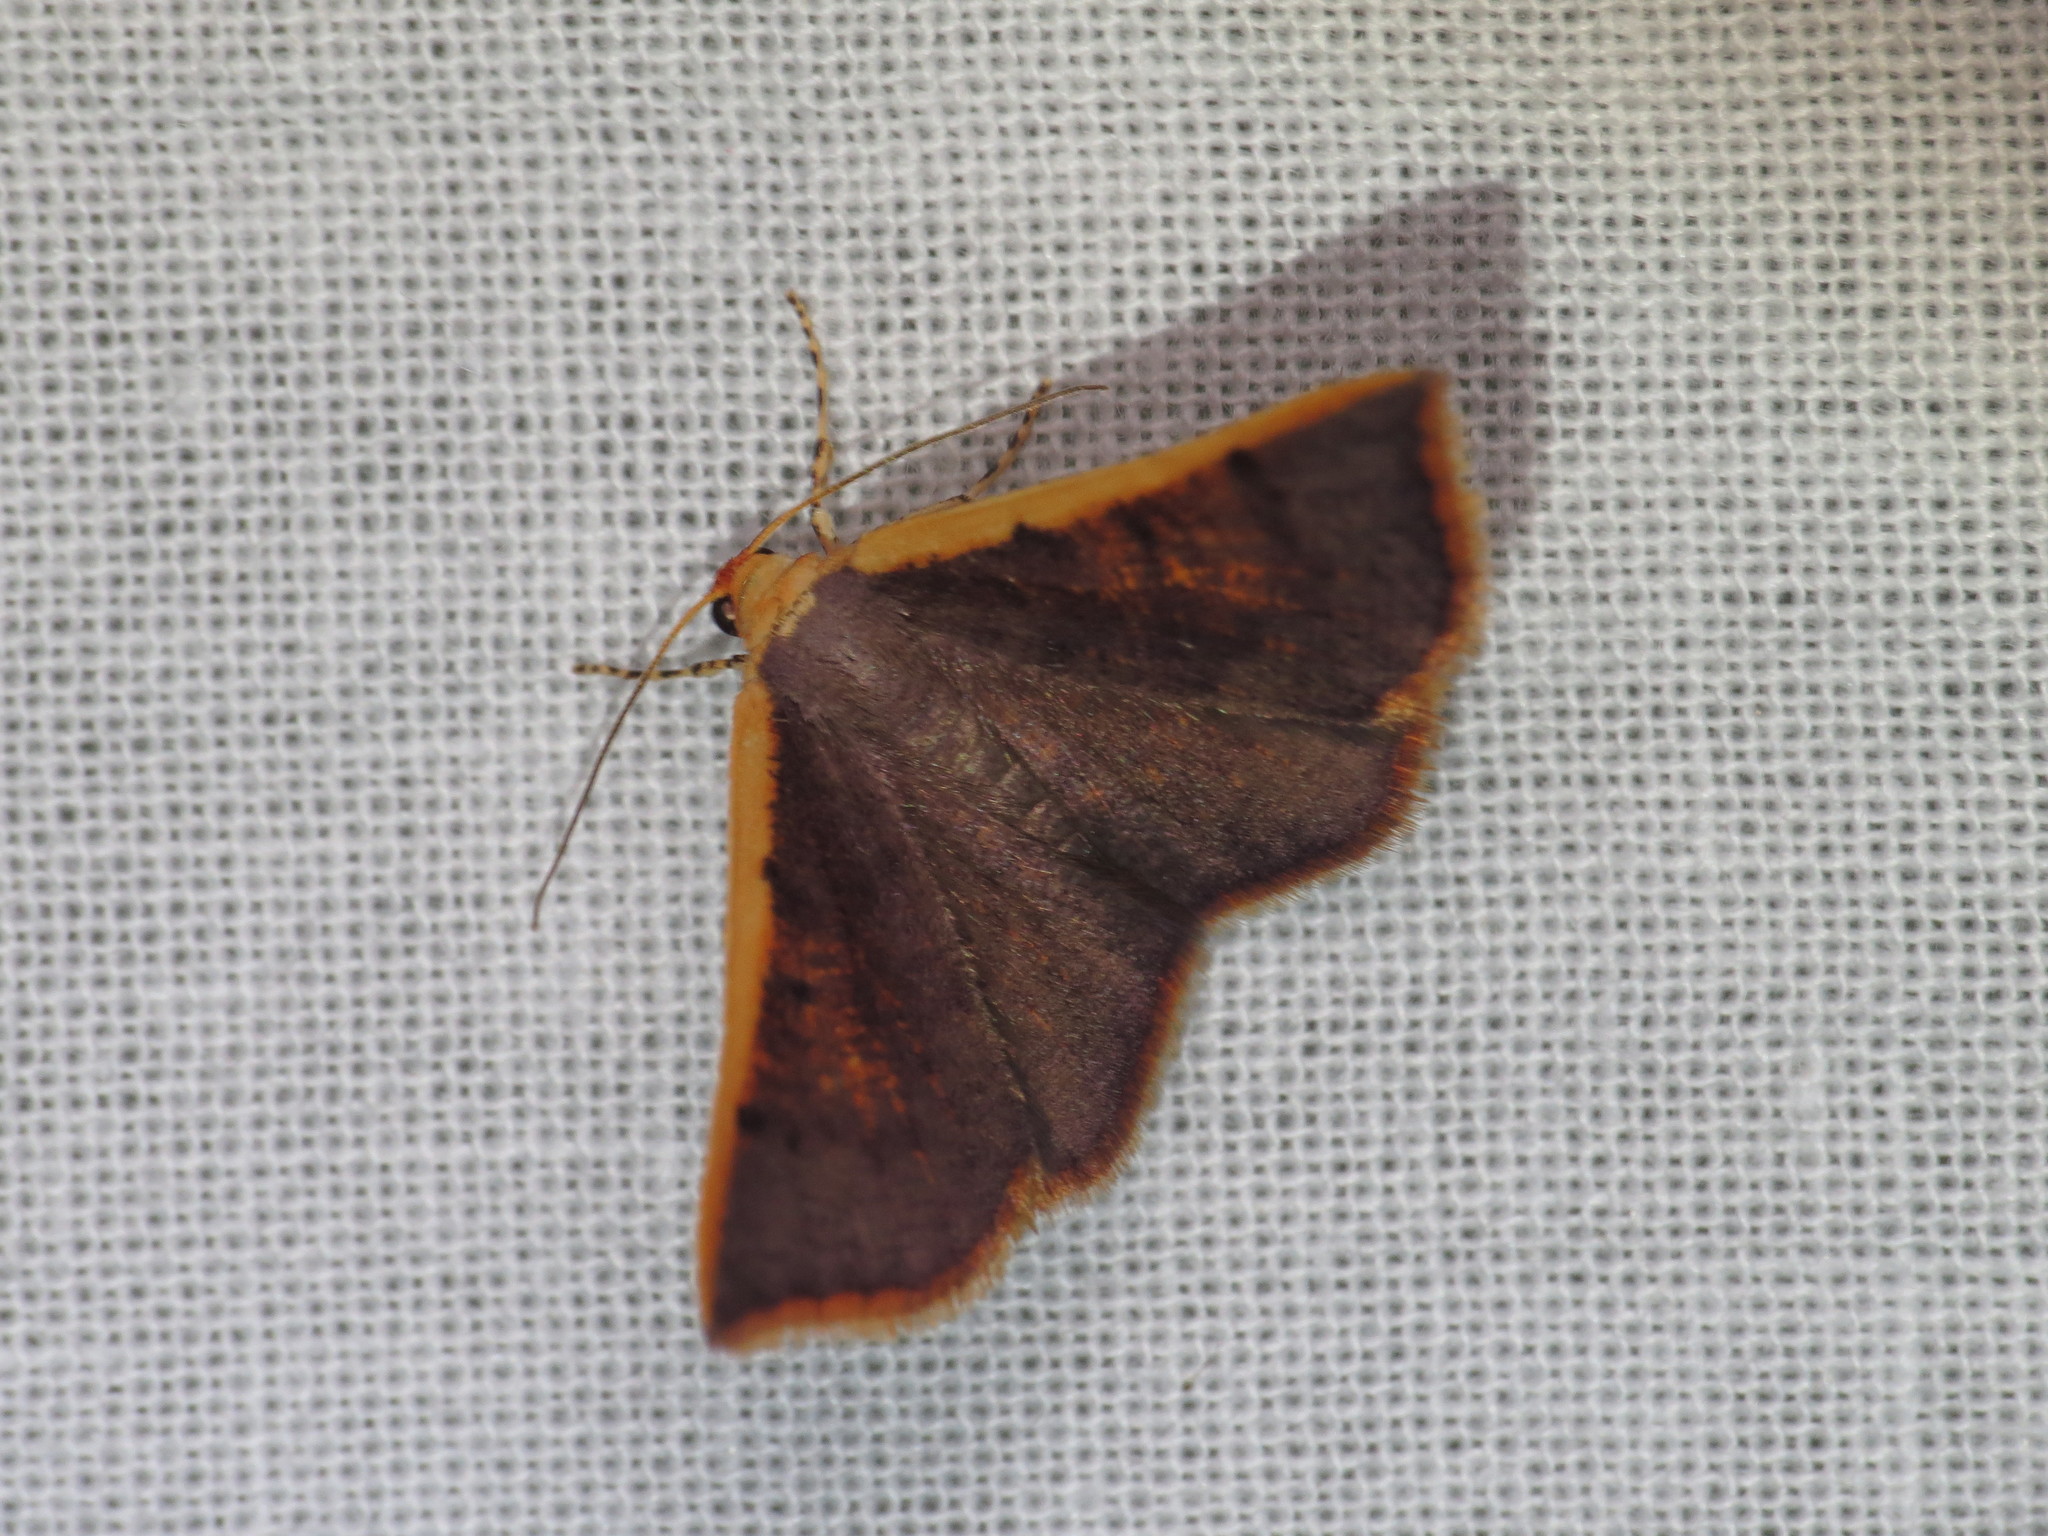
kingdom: Animalia
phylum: Arthropoda
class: Insecta
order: Lepidoptera
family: Geometridae
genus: Picromorpha
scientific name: Picromorpha pyrrhopa
